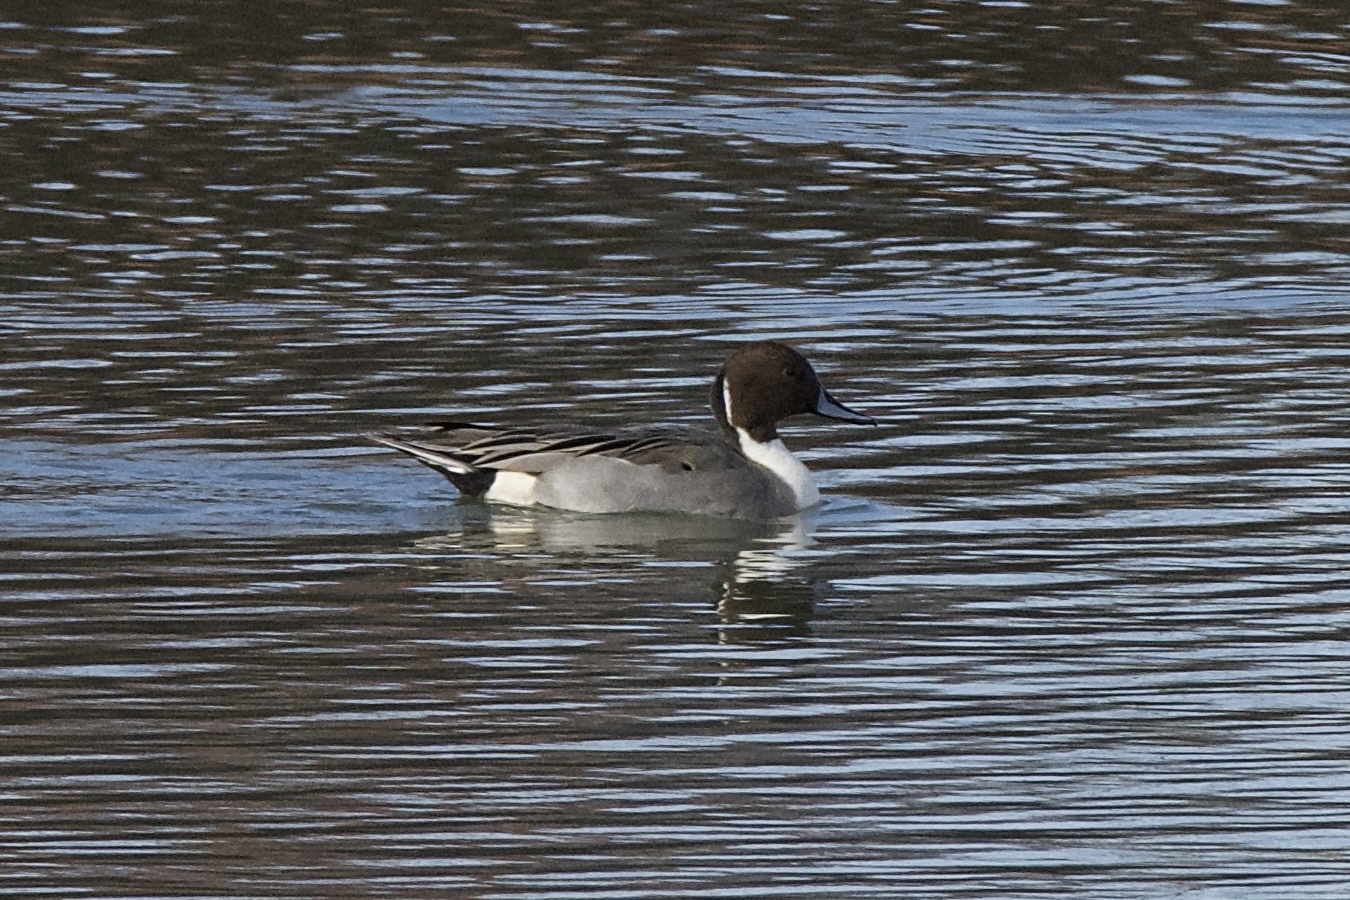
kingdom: Animalia
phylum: Chordata
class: Aves
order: Anseriformes
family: Anatidae
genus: Anas
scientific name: Anas acuta
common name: Northern pintail
